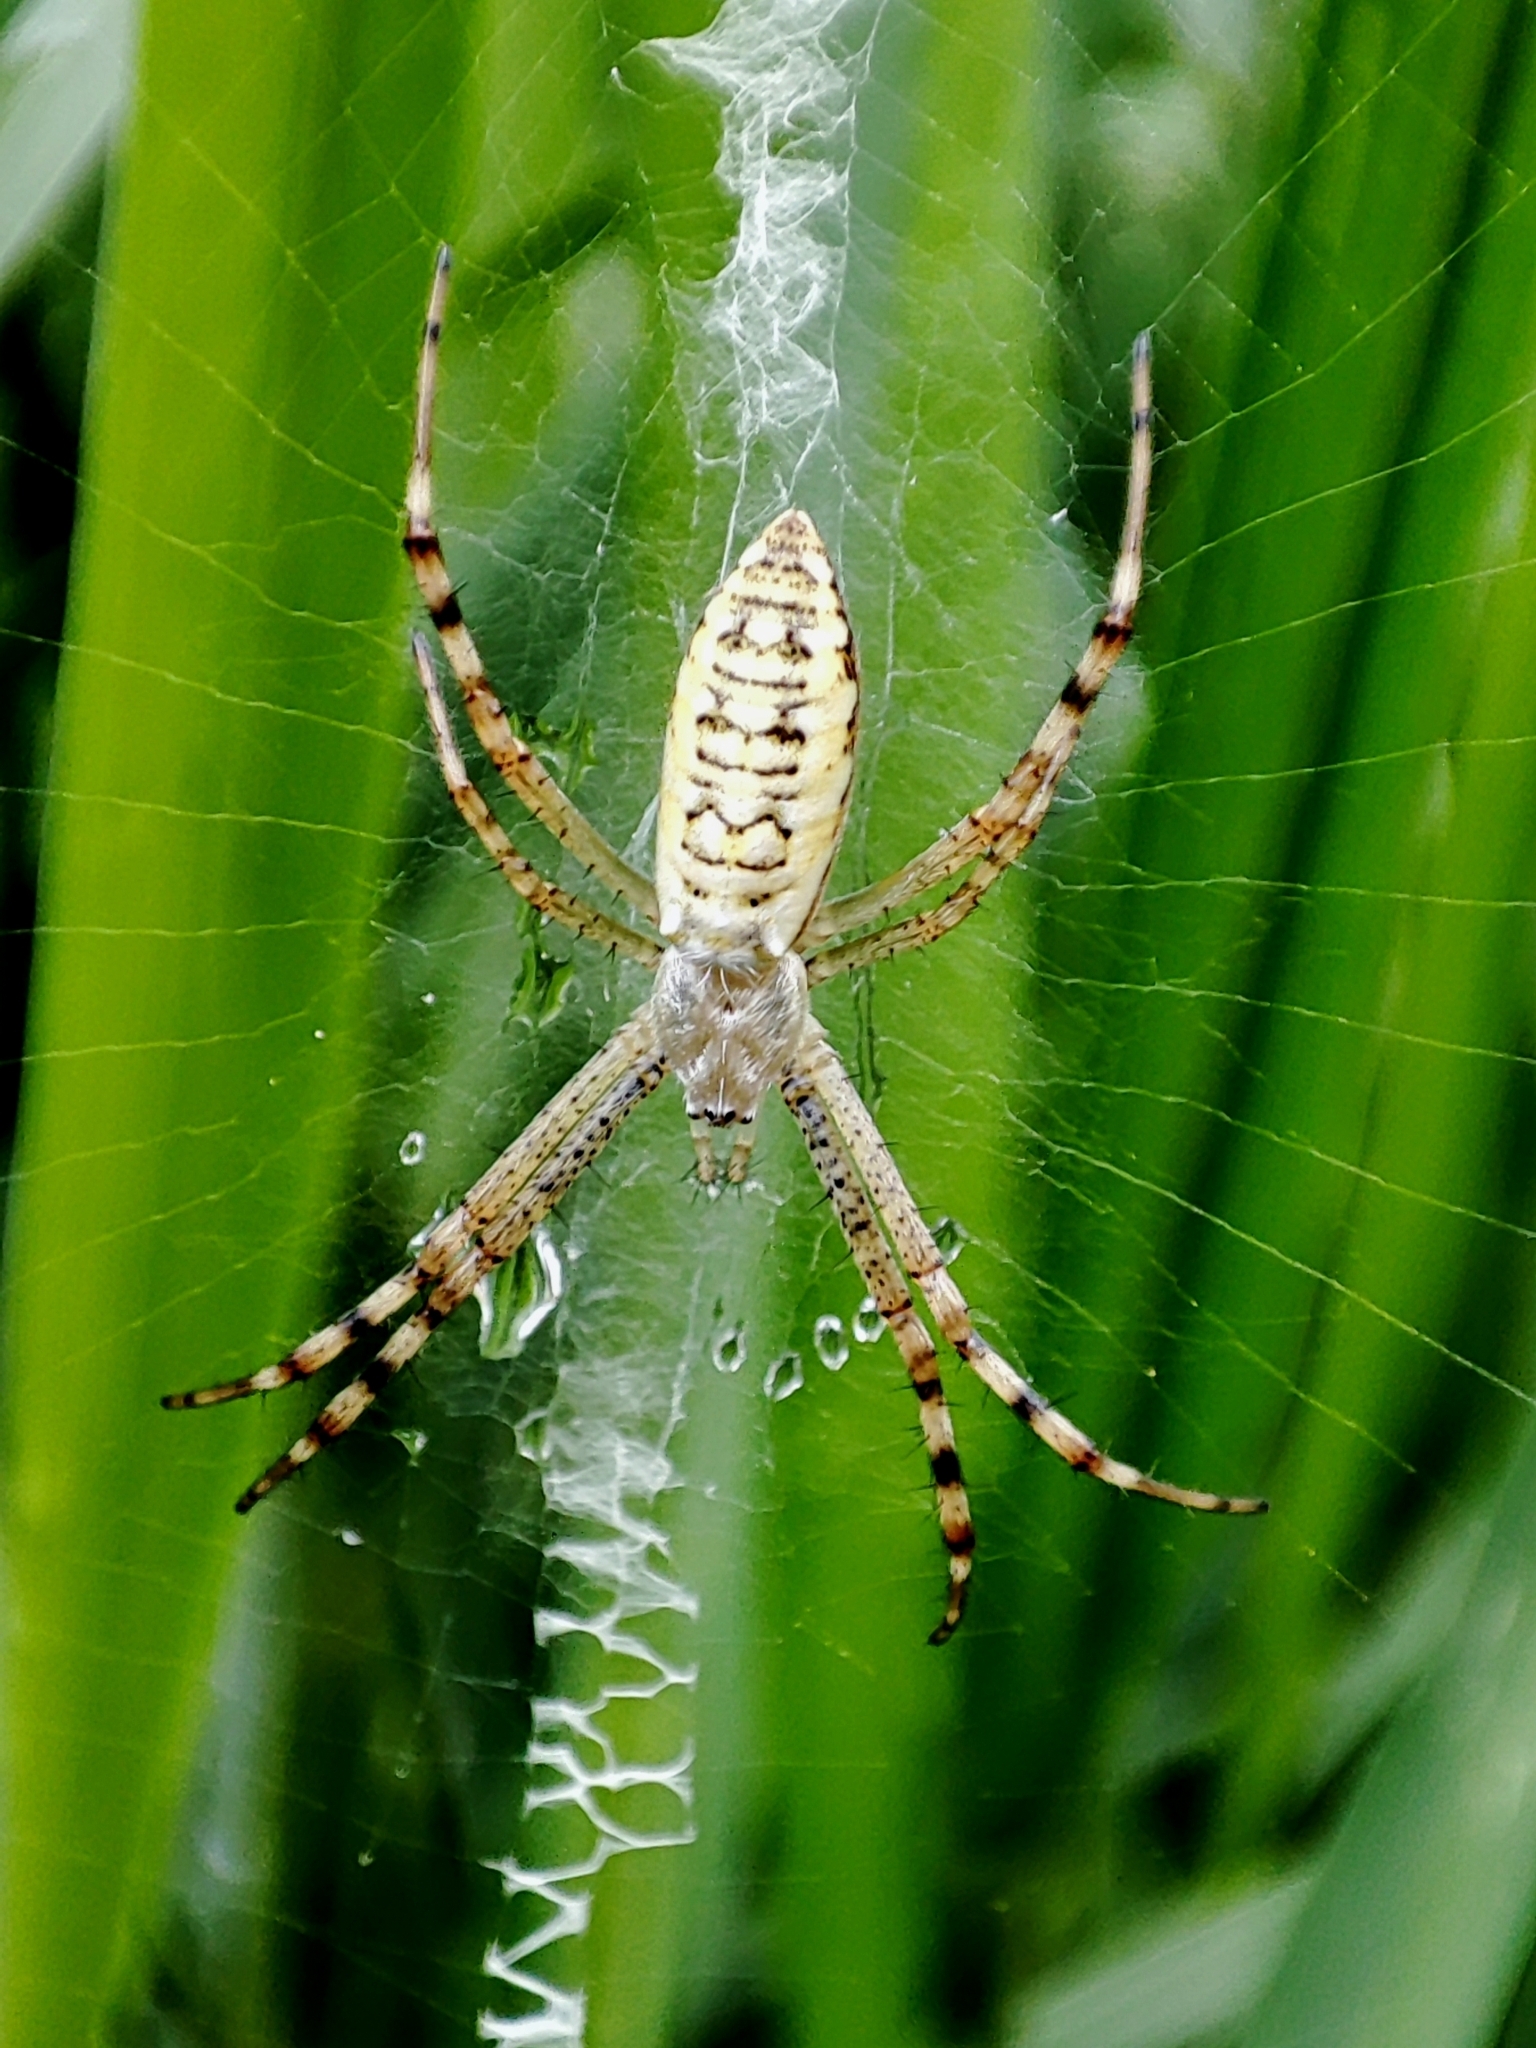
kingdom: Animalia
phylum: Arthropoda
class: Arachnida
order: Araneae
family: Araneidae
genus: Argiope
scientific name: Argiope bruennichi
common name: Wasp spider
